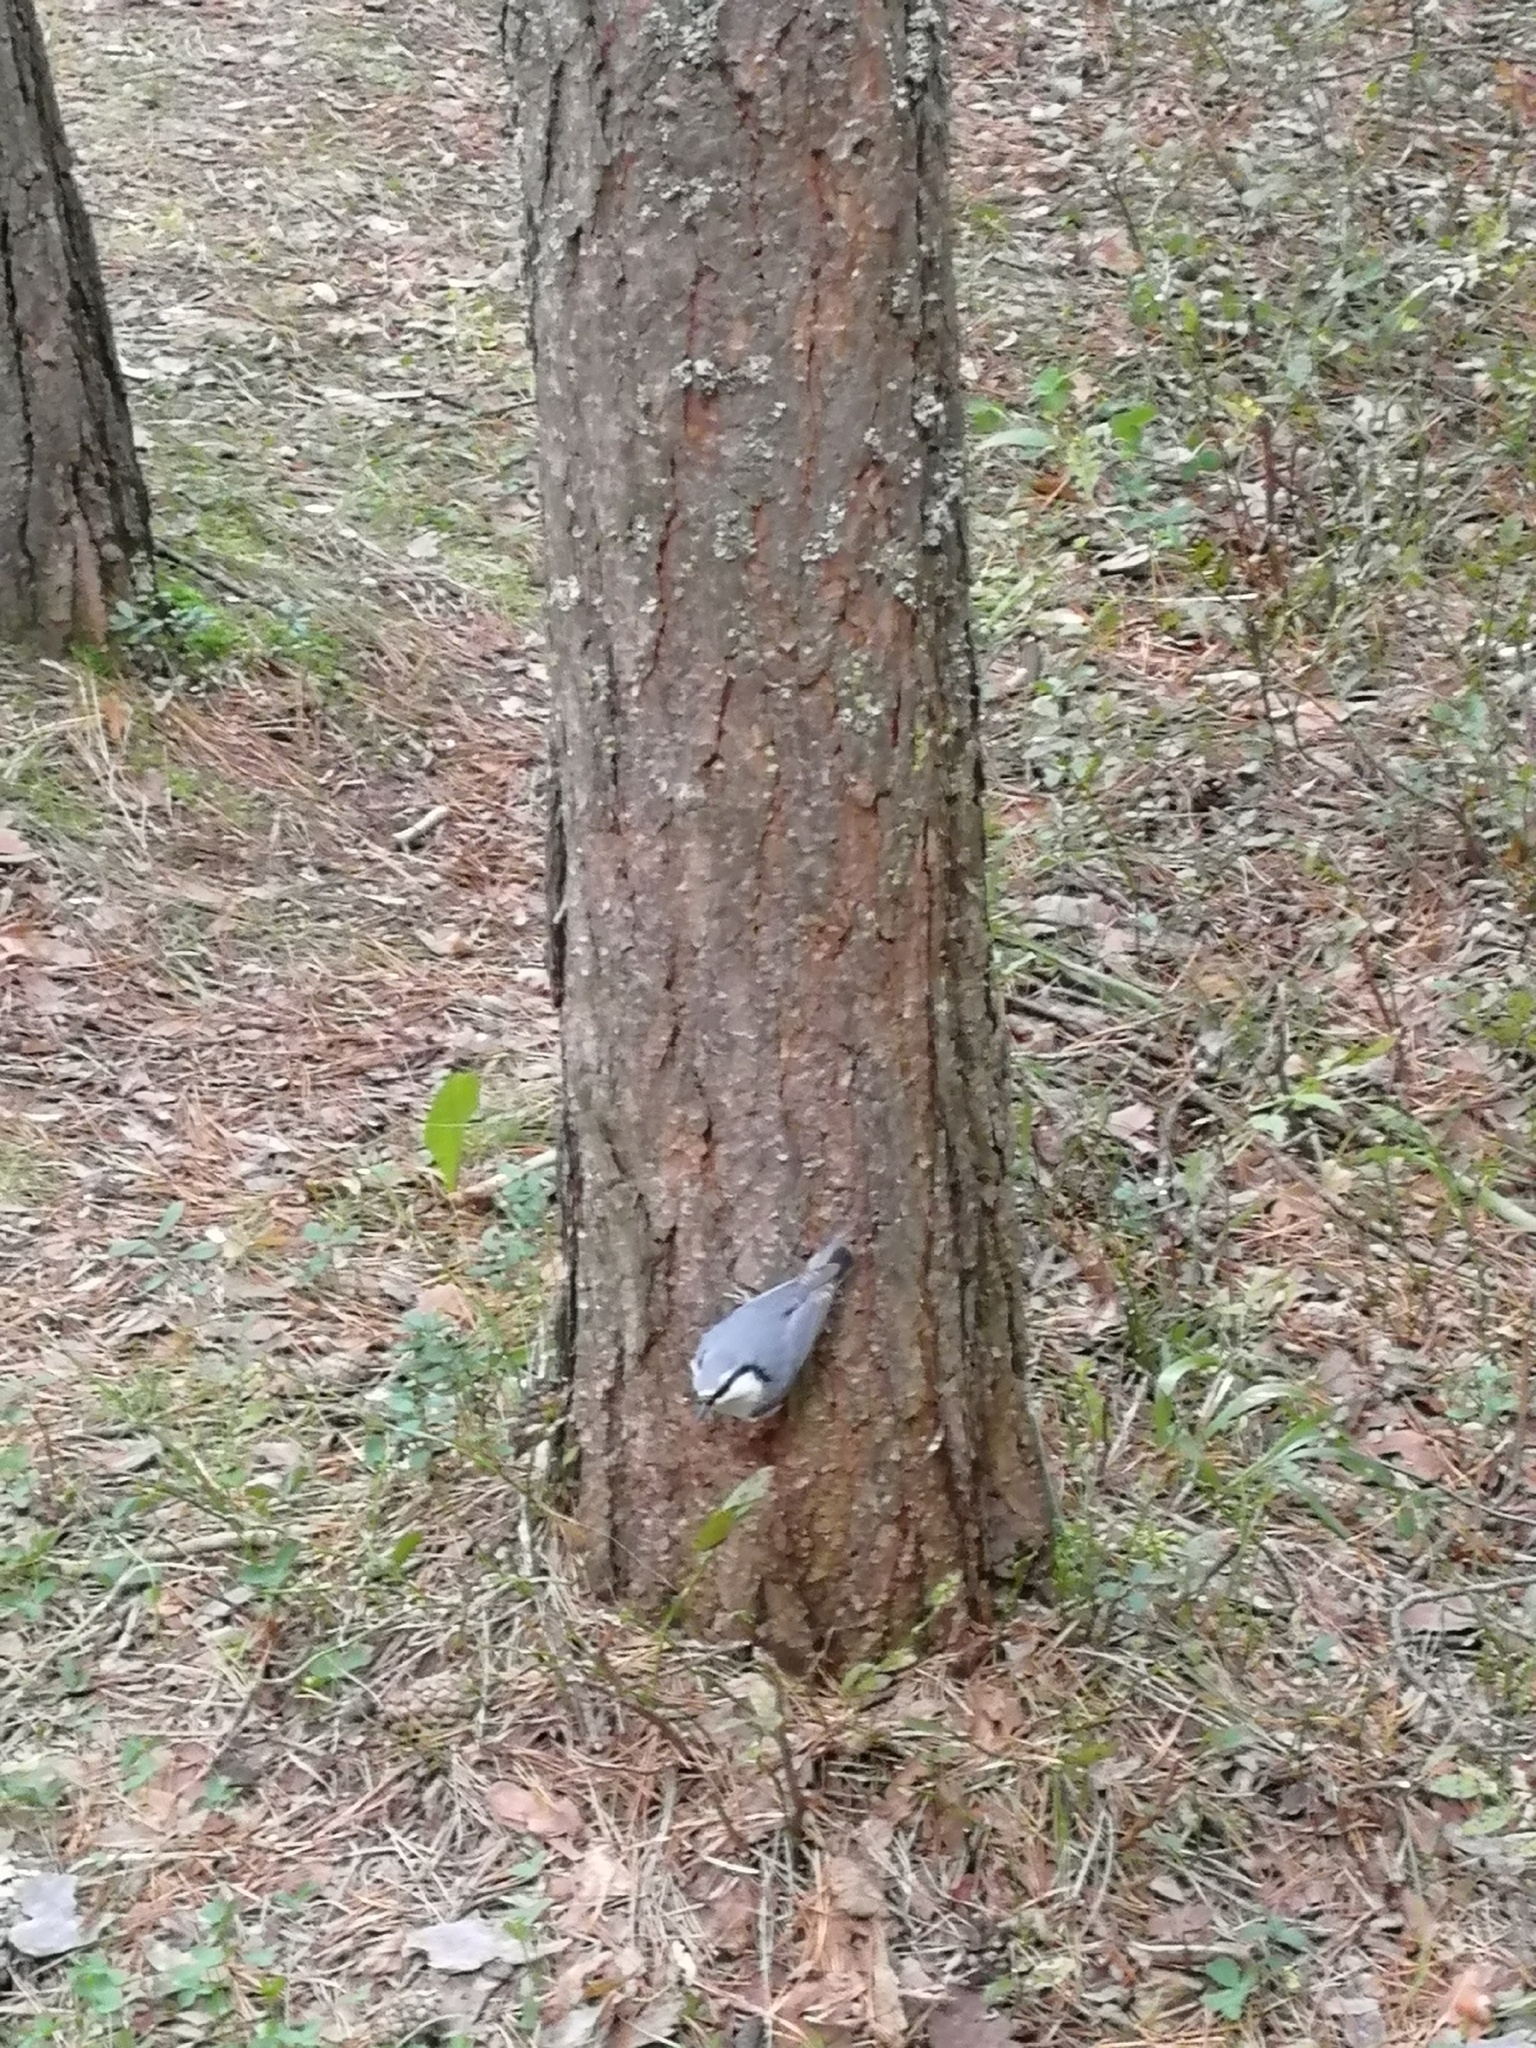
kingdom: Animalia
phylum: Chordata
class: Aves
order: Passeriformes
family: Sittidae
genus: Sitta
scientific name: Sitta europaea
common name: Eurasian nuthatch
